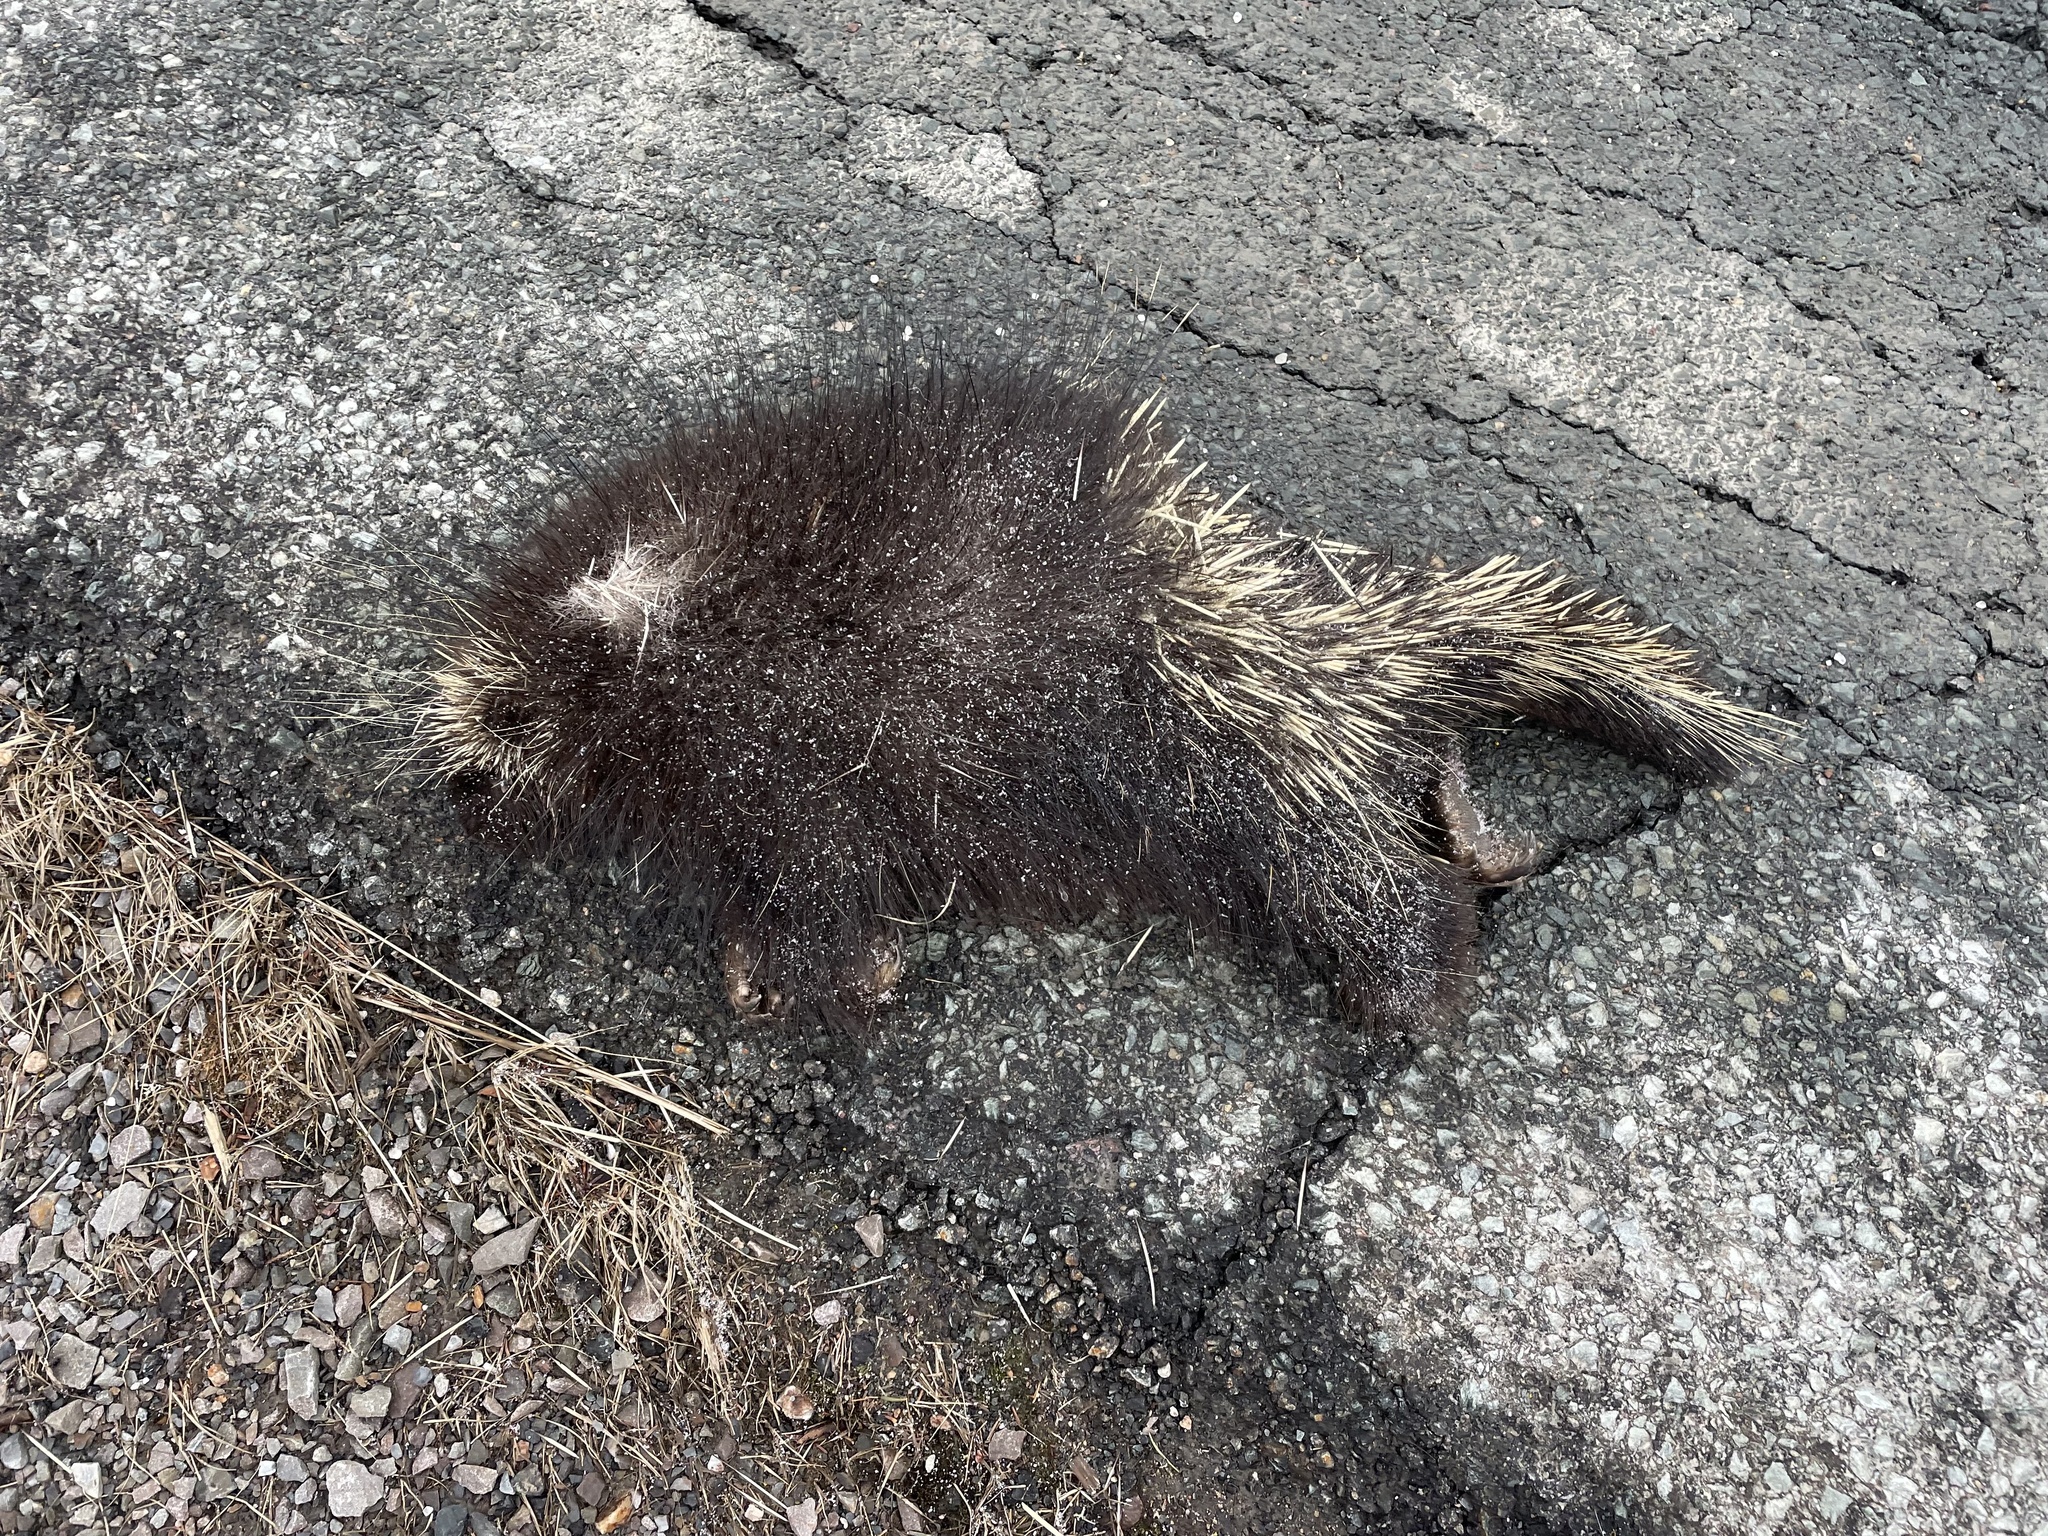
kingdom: Animalia
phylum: Chordata
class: Mammalia
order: Rodentia
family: Erethizontidae
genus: Erethizon
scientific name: Erethizon dorsatus
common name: North american porcupine
